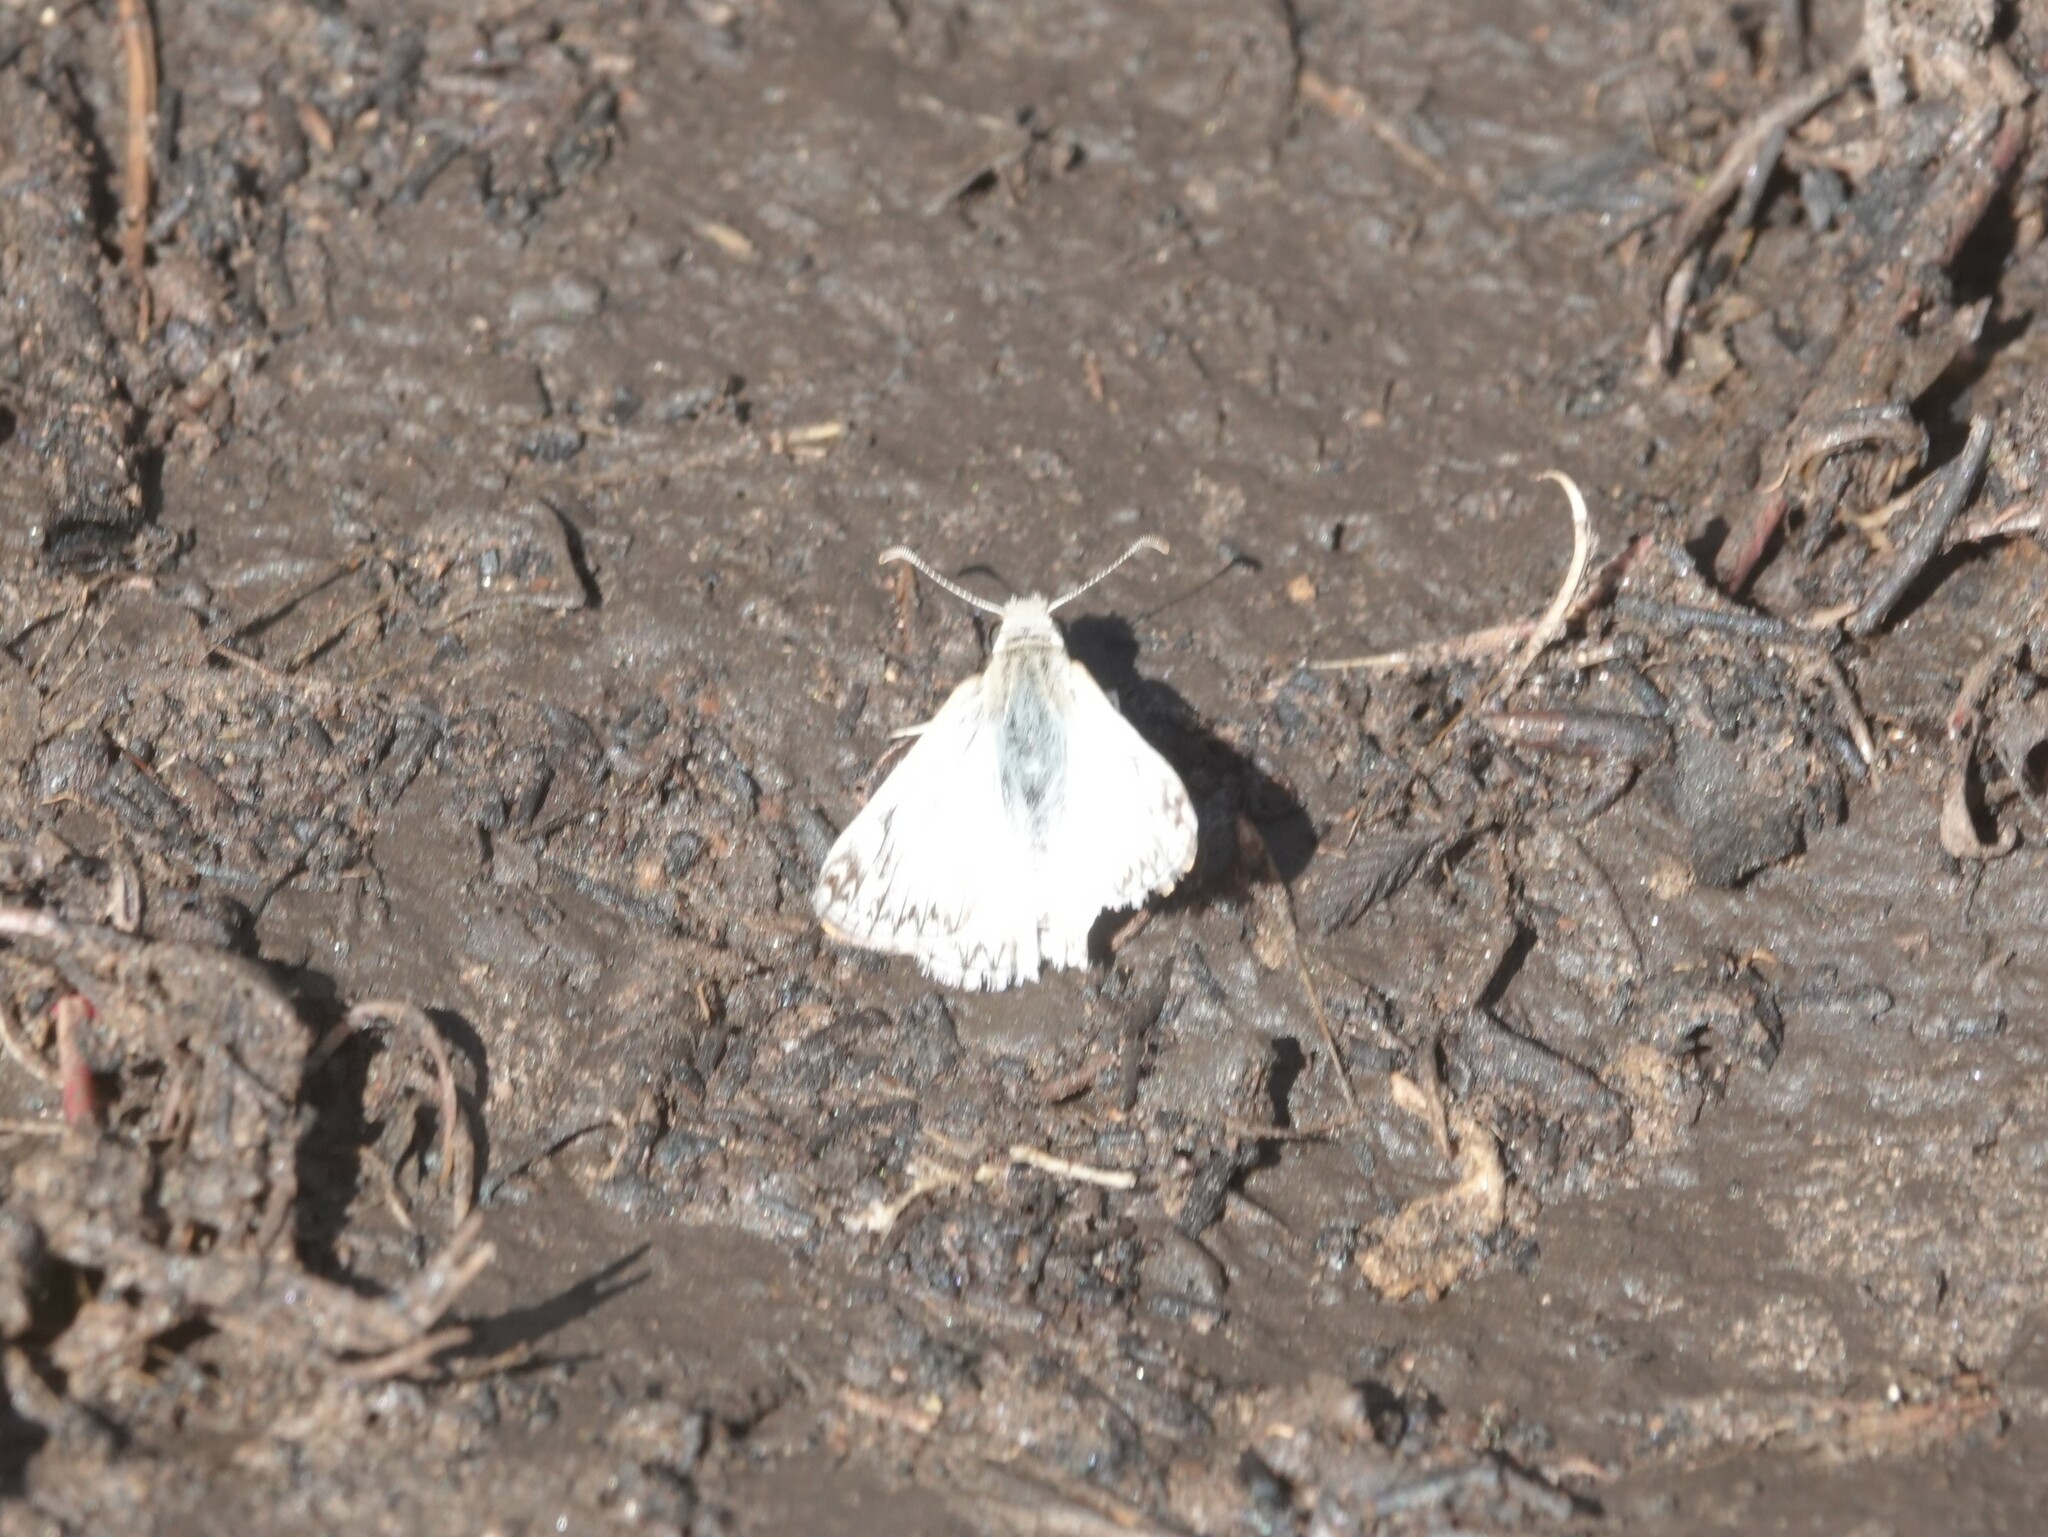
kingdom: Animalia
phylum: Arthropoda
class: Insecta
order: Lepidoptera
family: Hesperiidae
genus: Heliopetes
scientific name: Heliopetes ericetorum
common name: Northern white-skipper
